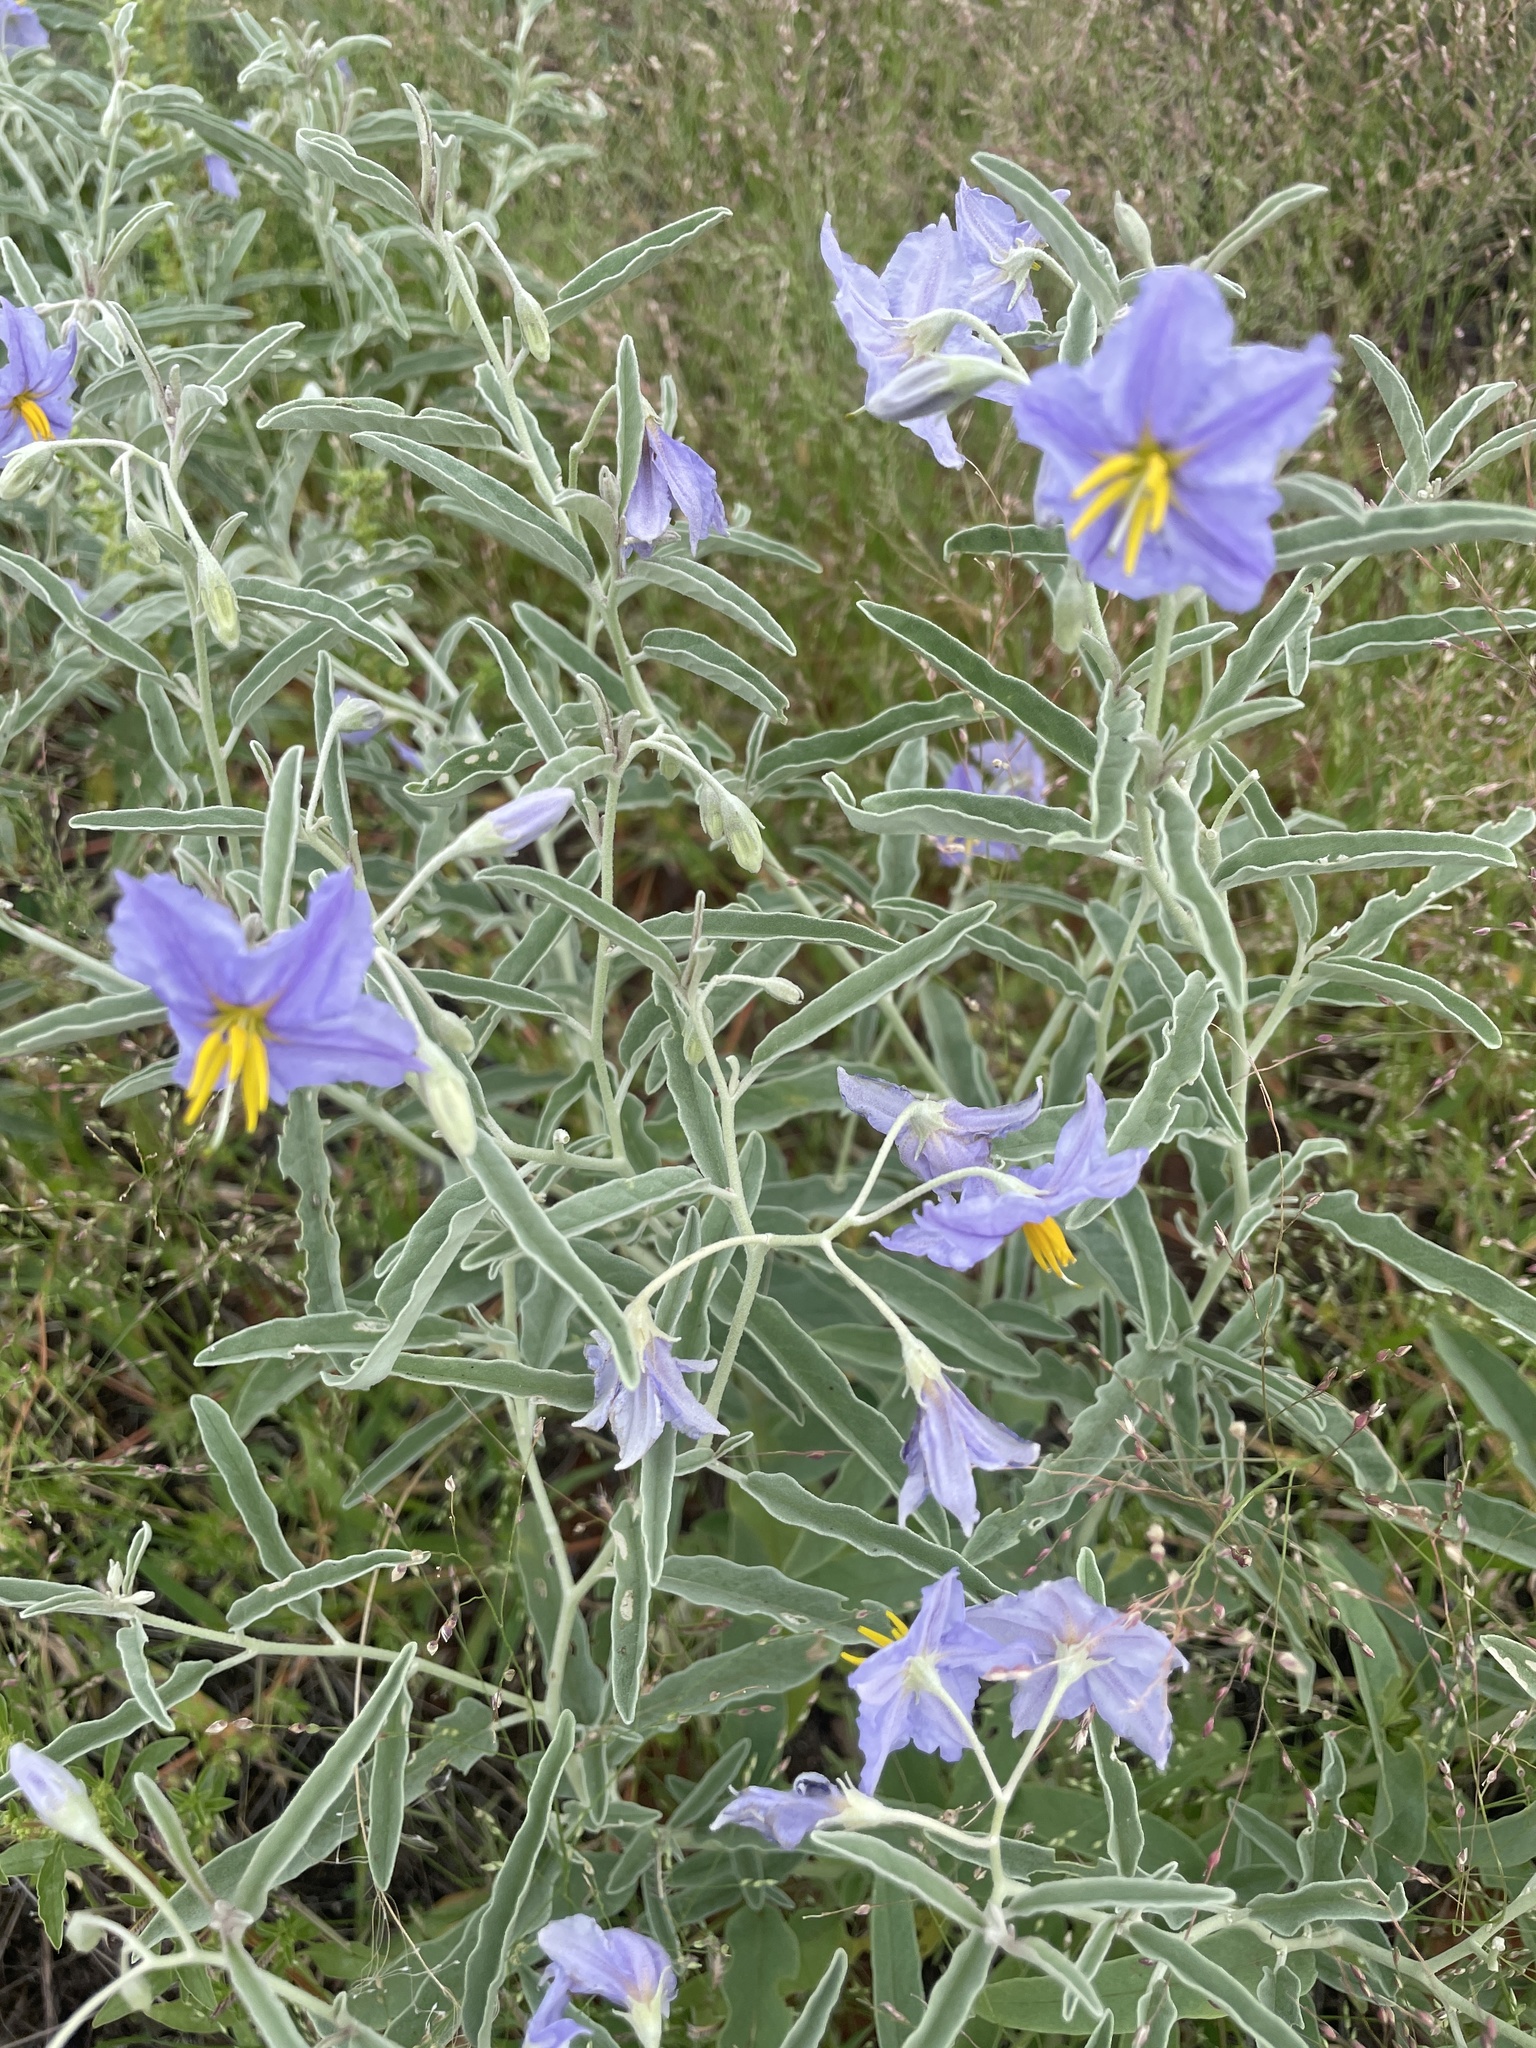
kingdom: Plantae
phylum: Tracheophyta
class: Magnoliopsida
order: Solanales
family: Solanaceae
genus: Solanum
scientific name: Solanum elaeagnifolium
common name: Silverleaf nightshade
